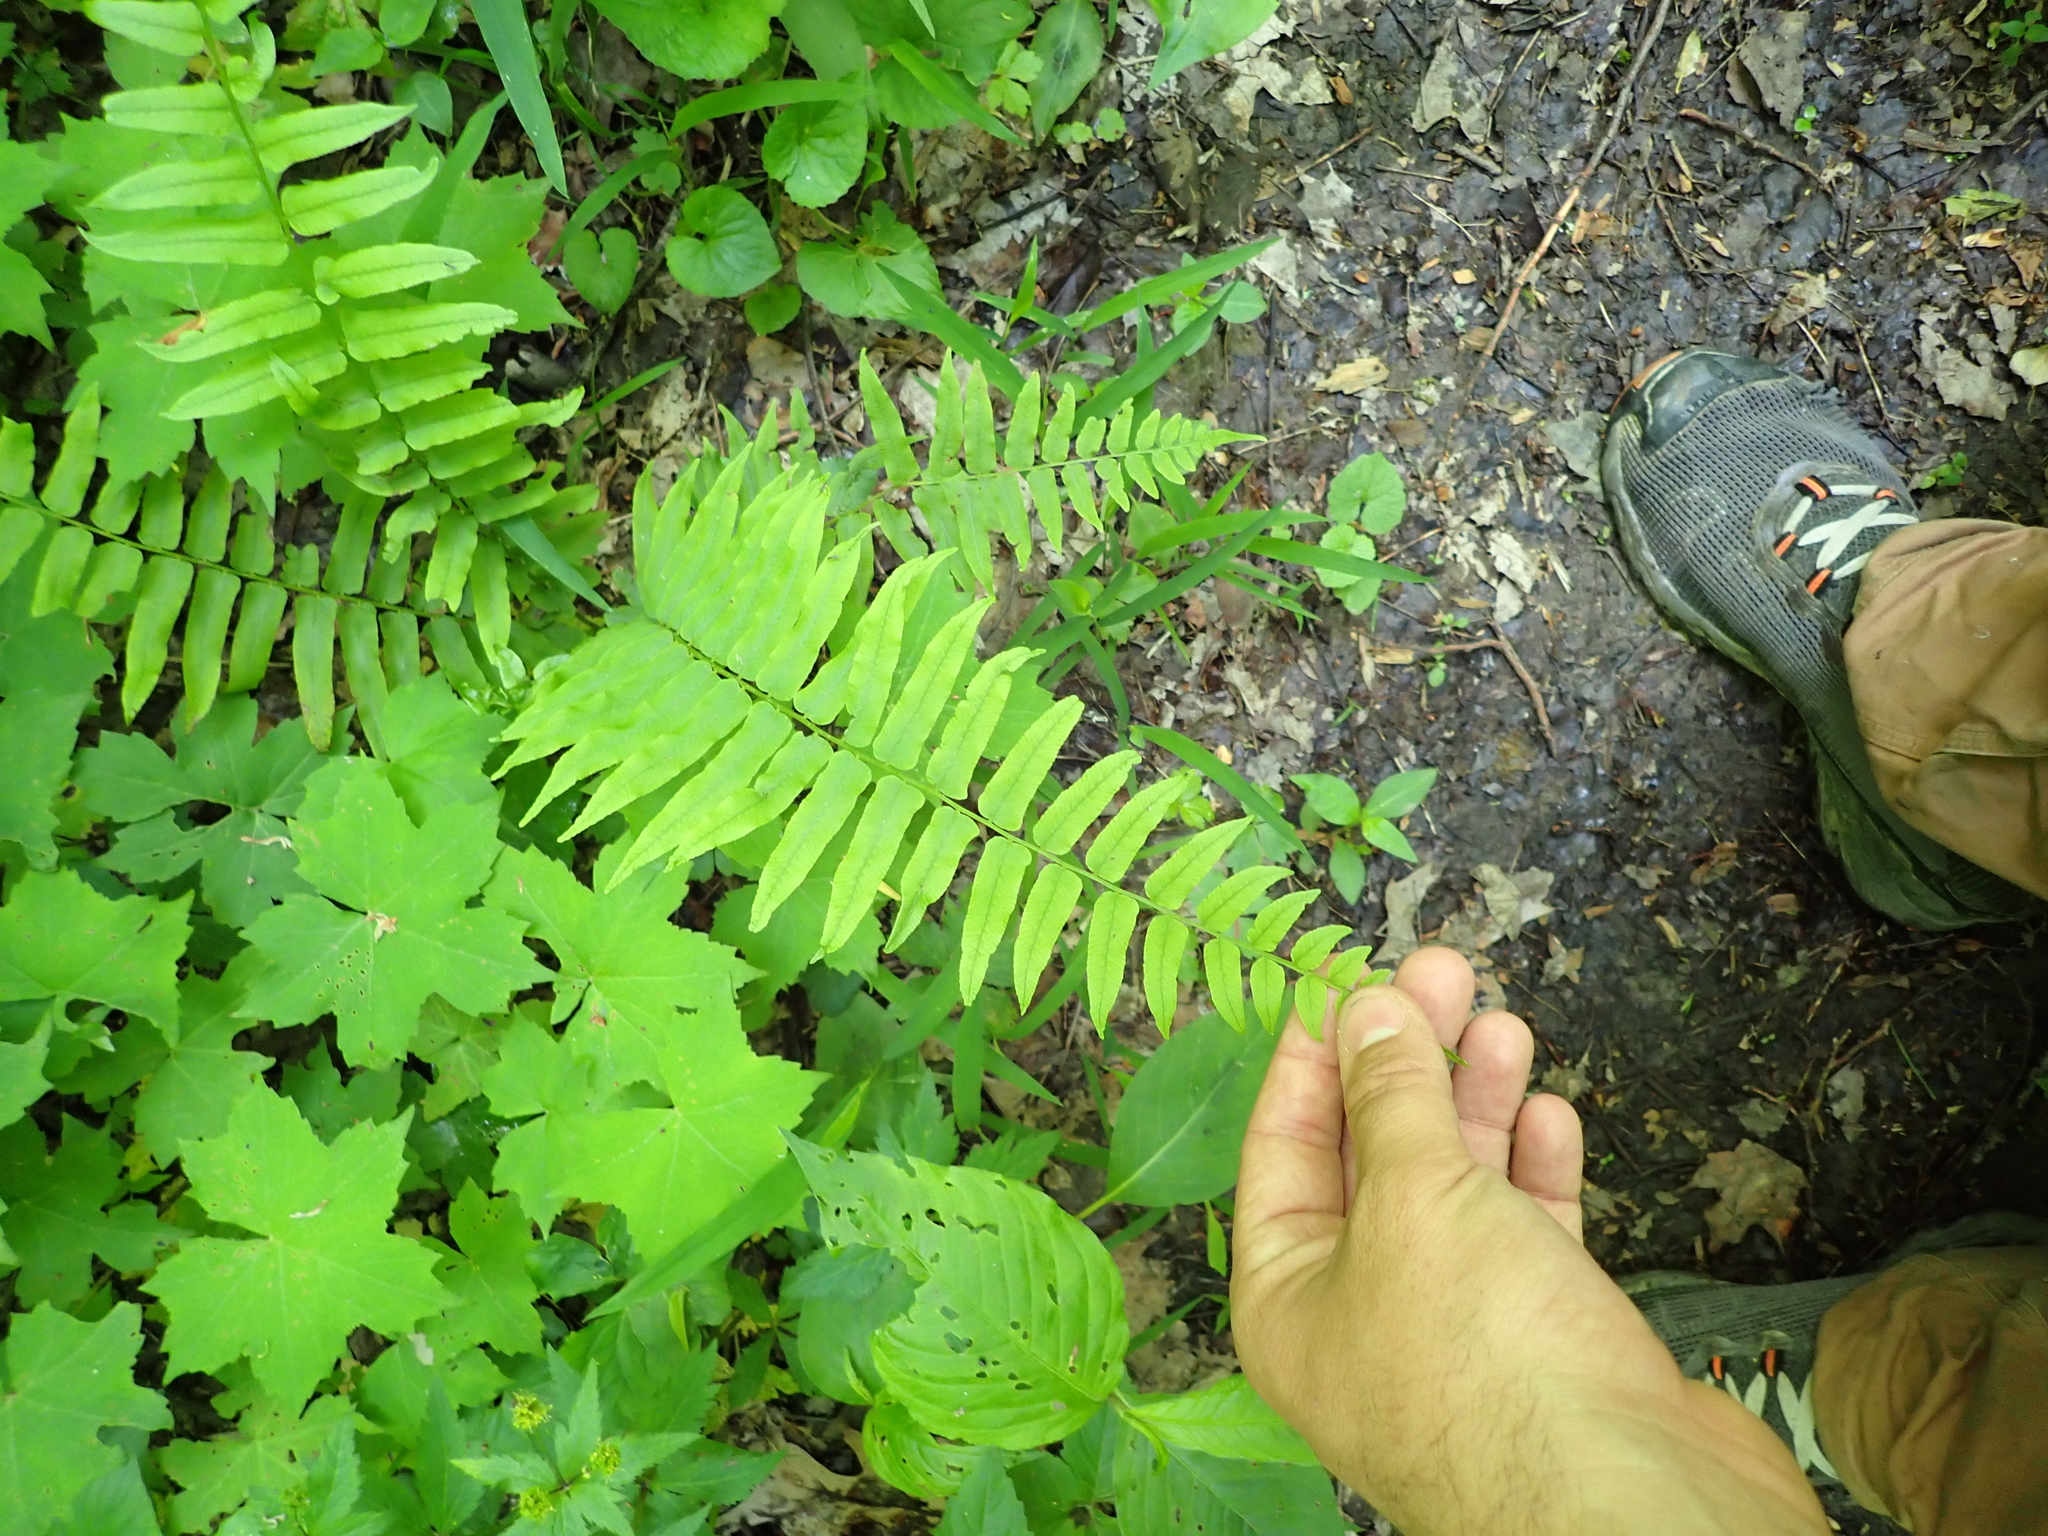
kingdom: Plantae
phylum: Tracheophyta
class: Polypodiopsida
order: Polypodiales
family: Diplaziopsidaceae
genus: Homalosorus
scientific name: Homalosorus pycnocarpos
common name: Glade fern
